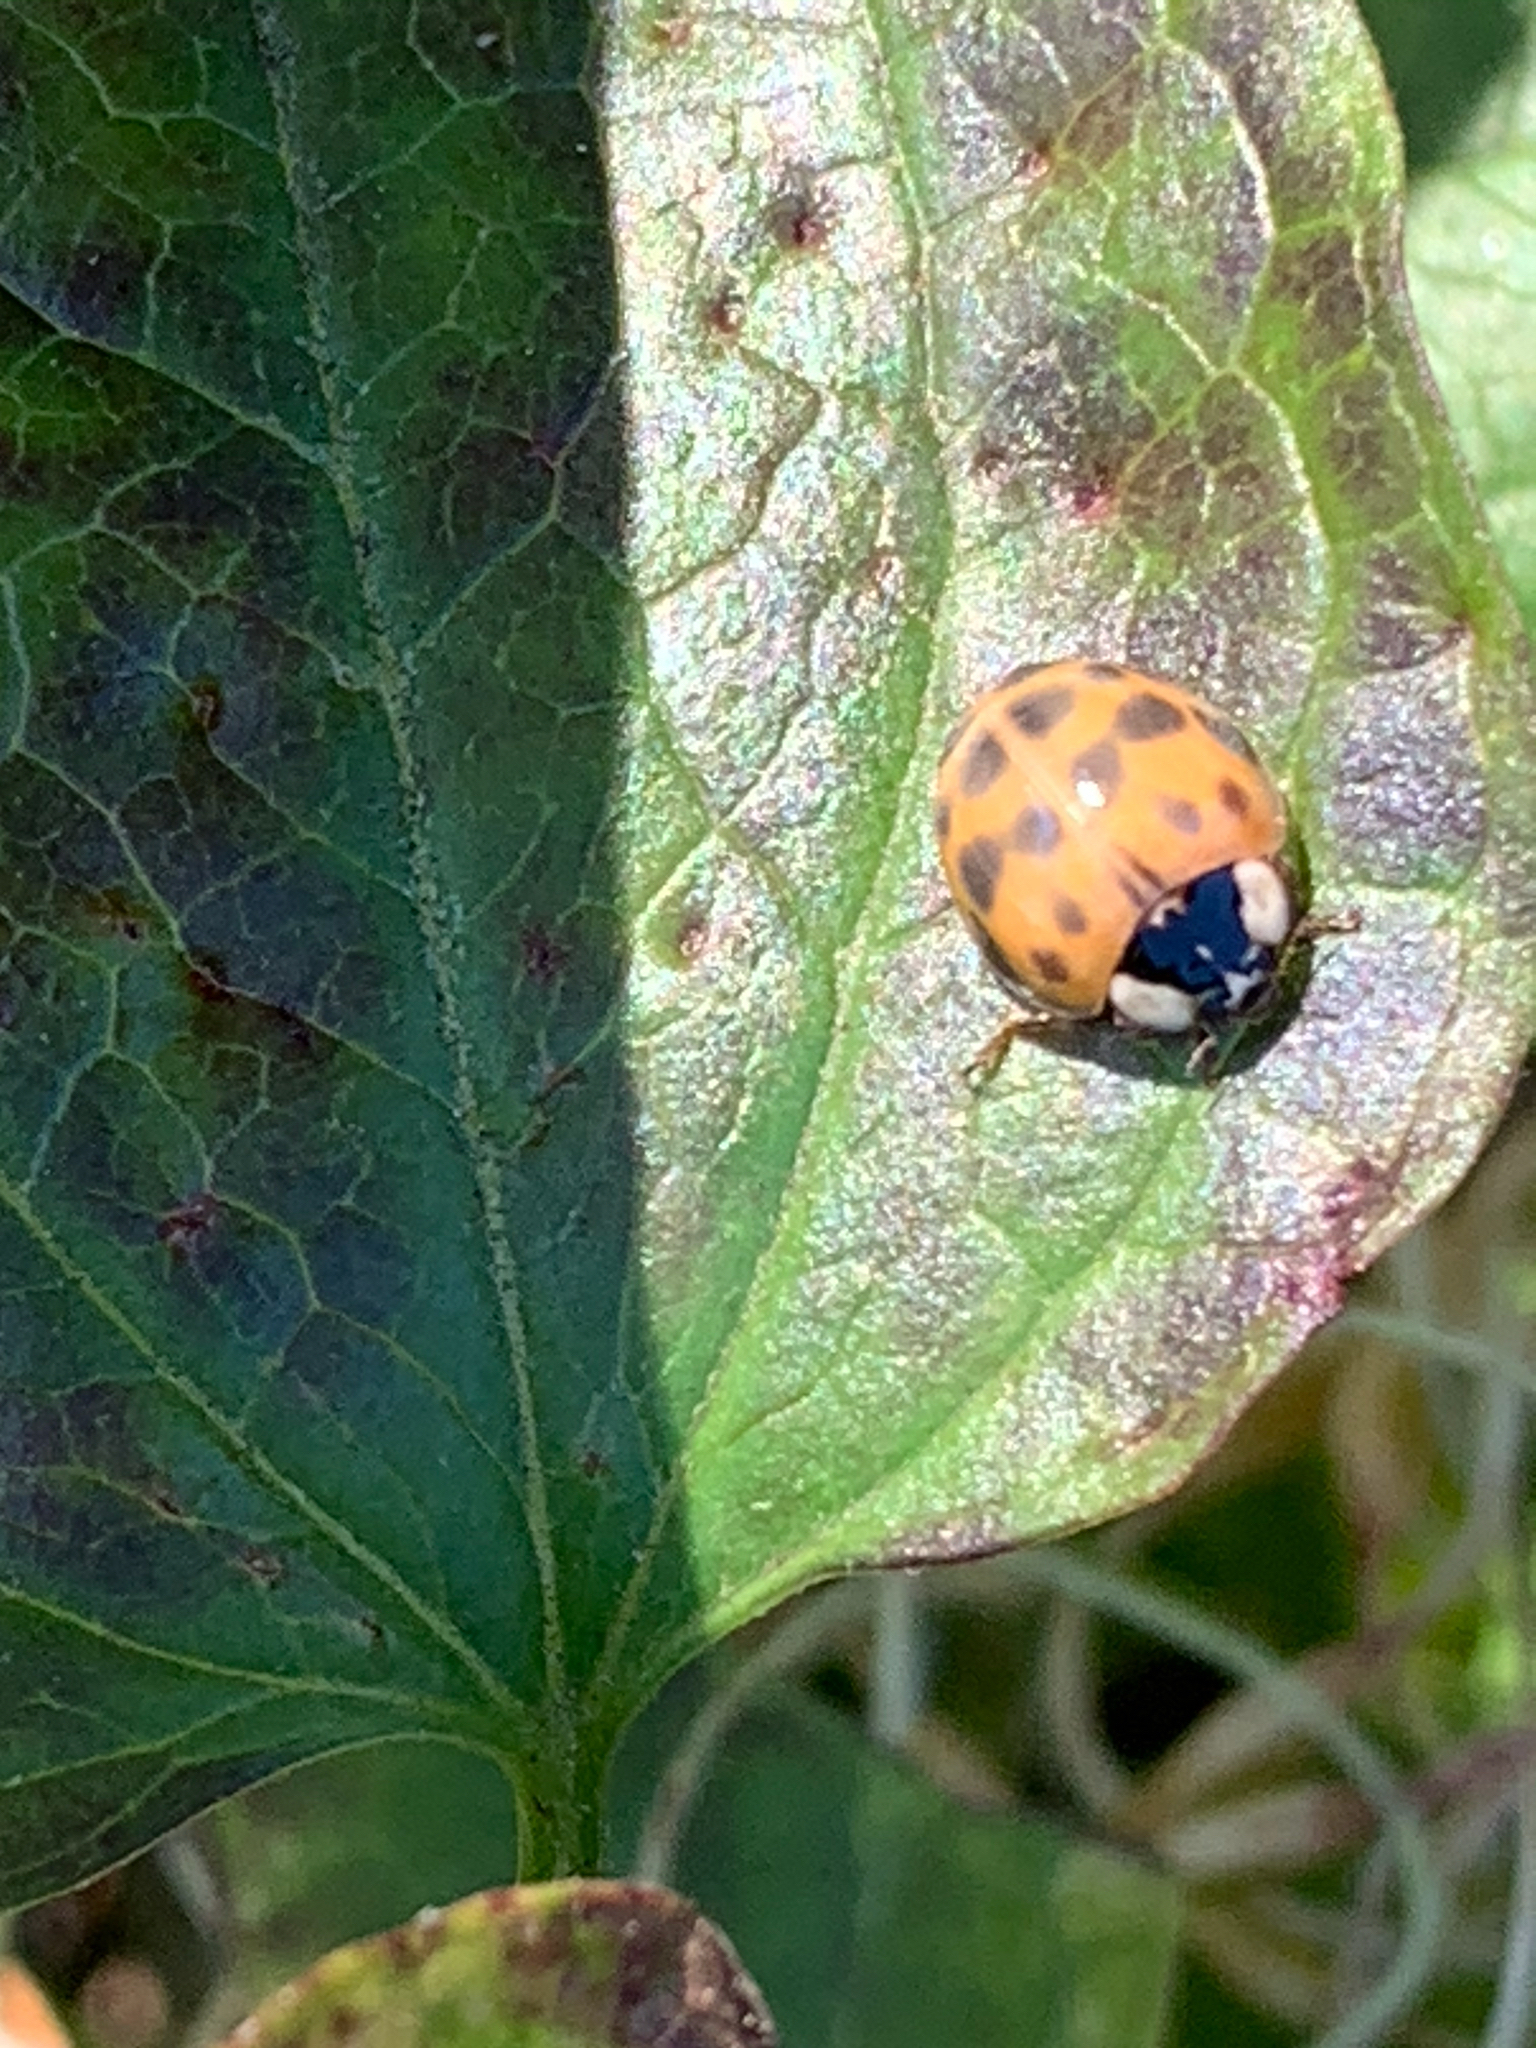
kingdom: Animalia
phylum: Arthropoda
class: Insecta
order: Coleoptera
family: Coccinellidae
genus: Harmonia
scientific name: Harmonia axyridis
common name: Harlequin ladybird
